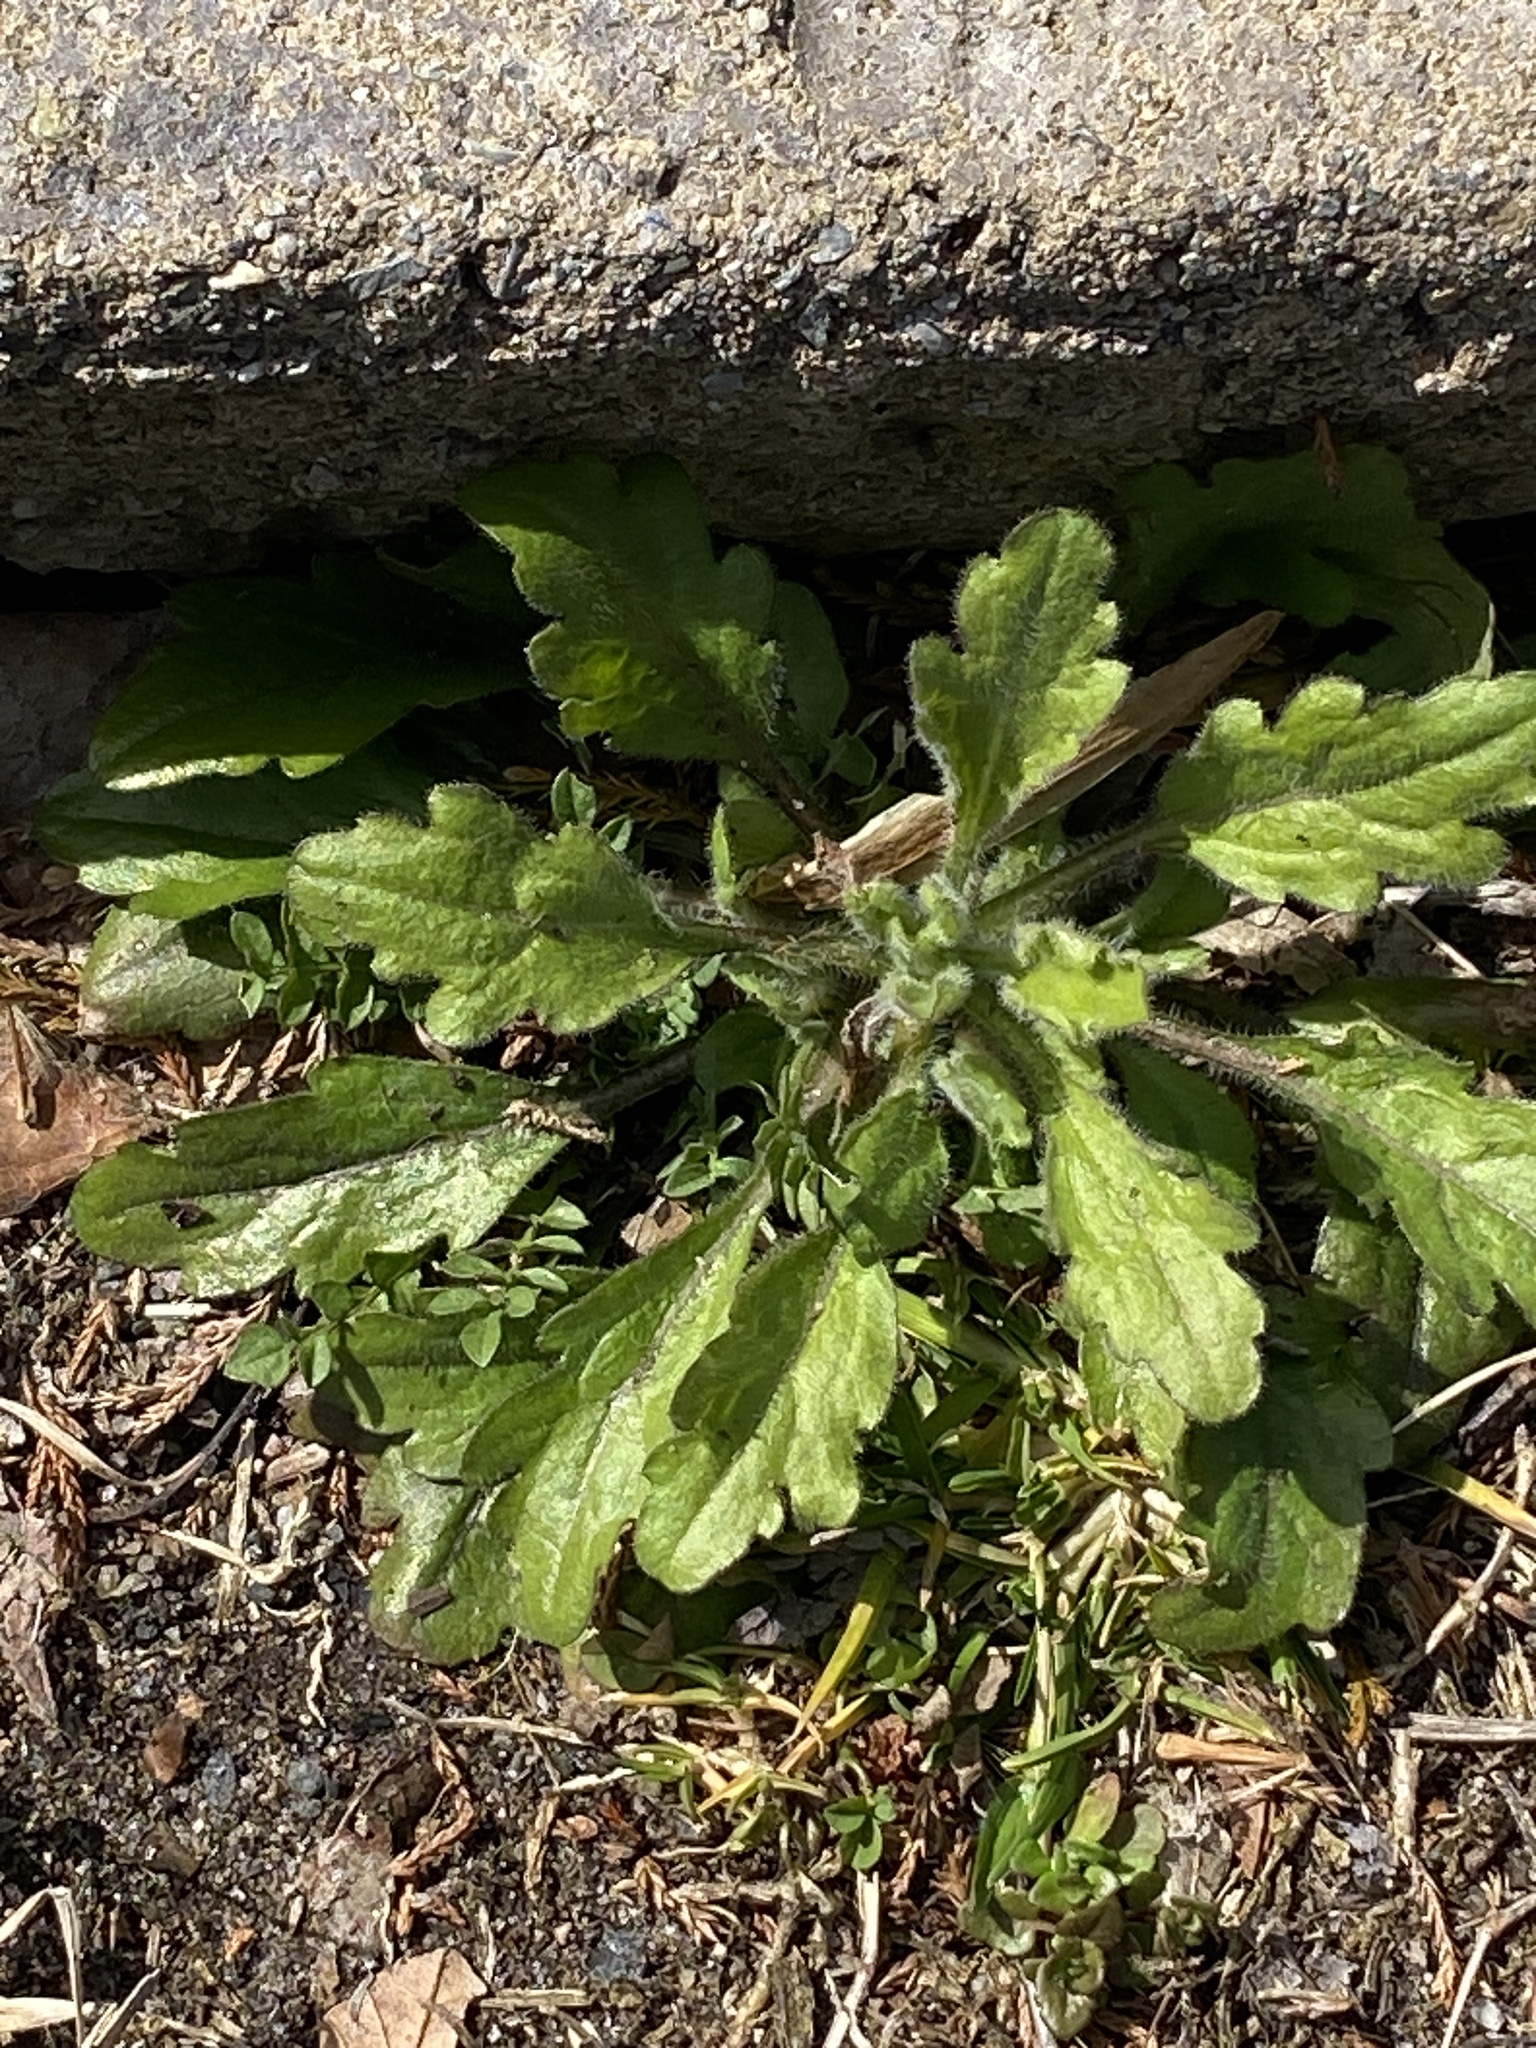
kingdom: Plantae
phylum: Tracheophyta
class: Magnoliopsida
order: Asterales
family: Asteraceae
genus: Erigeron
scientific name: Erigeron canadensis
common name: Canadian fleabane
